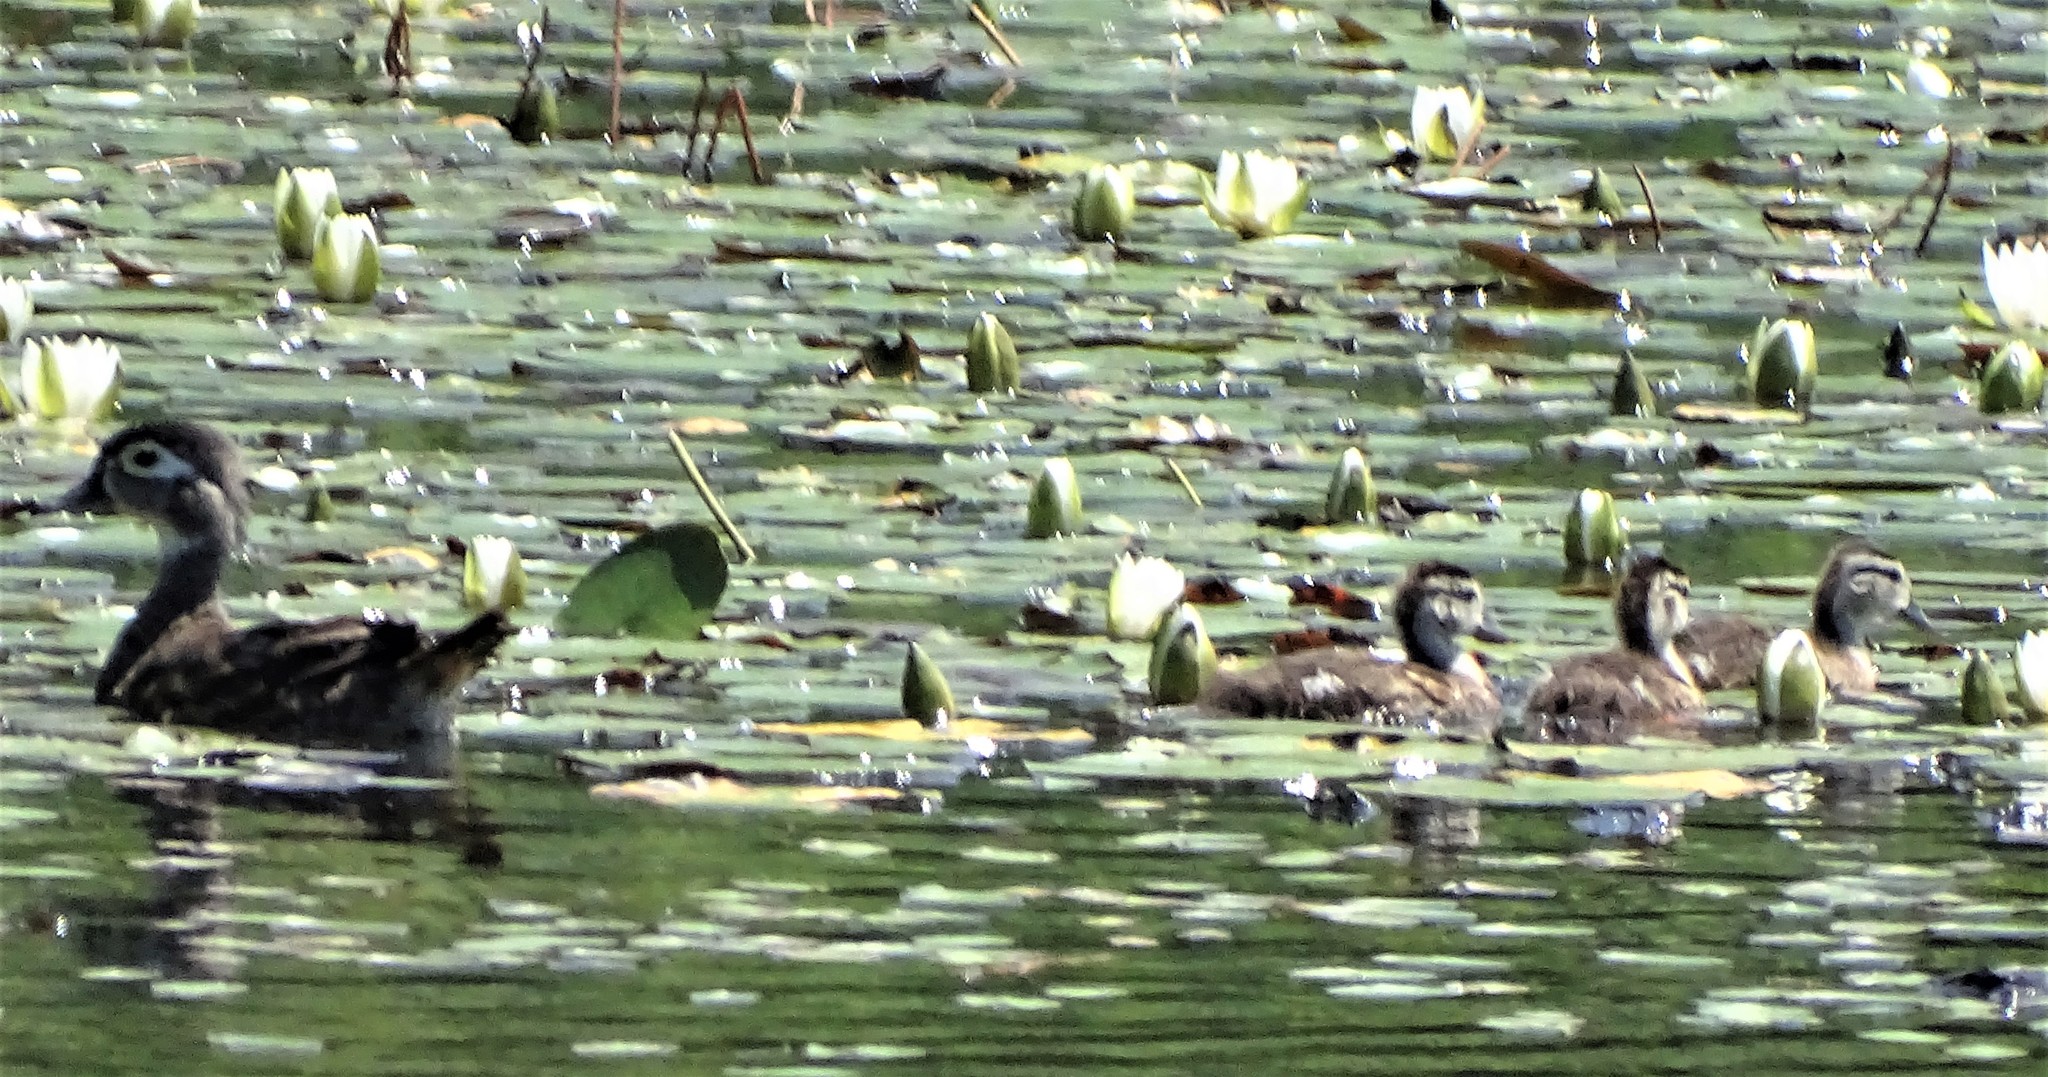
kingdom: Animalia
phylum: Chordata
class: Aves
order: Anseriformes
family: Anatidae
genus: Aix
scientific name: Aix sponsa
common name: Wood duck
